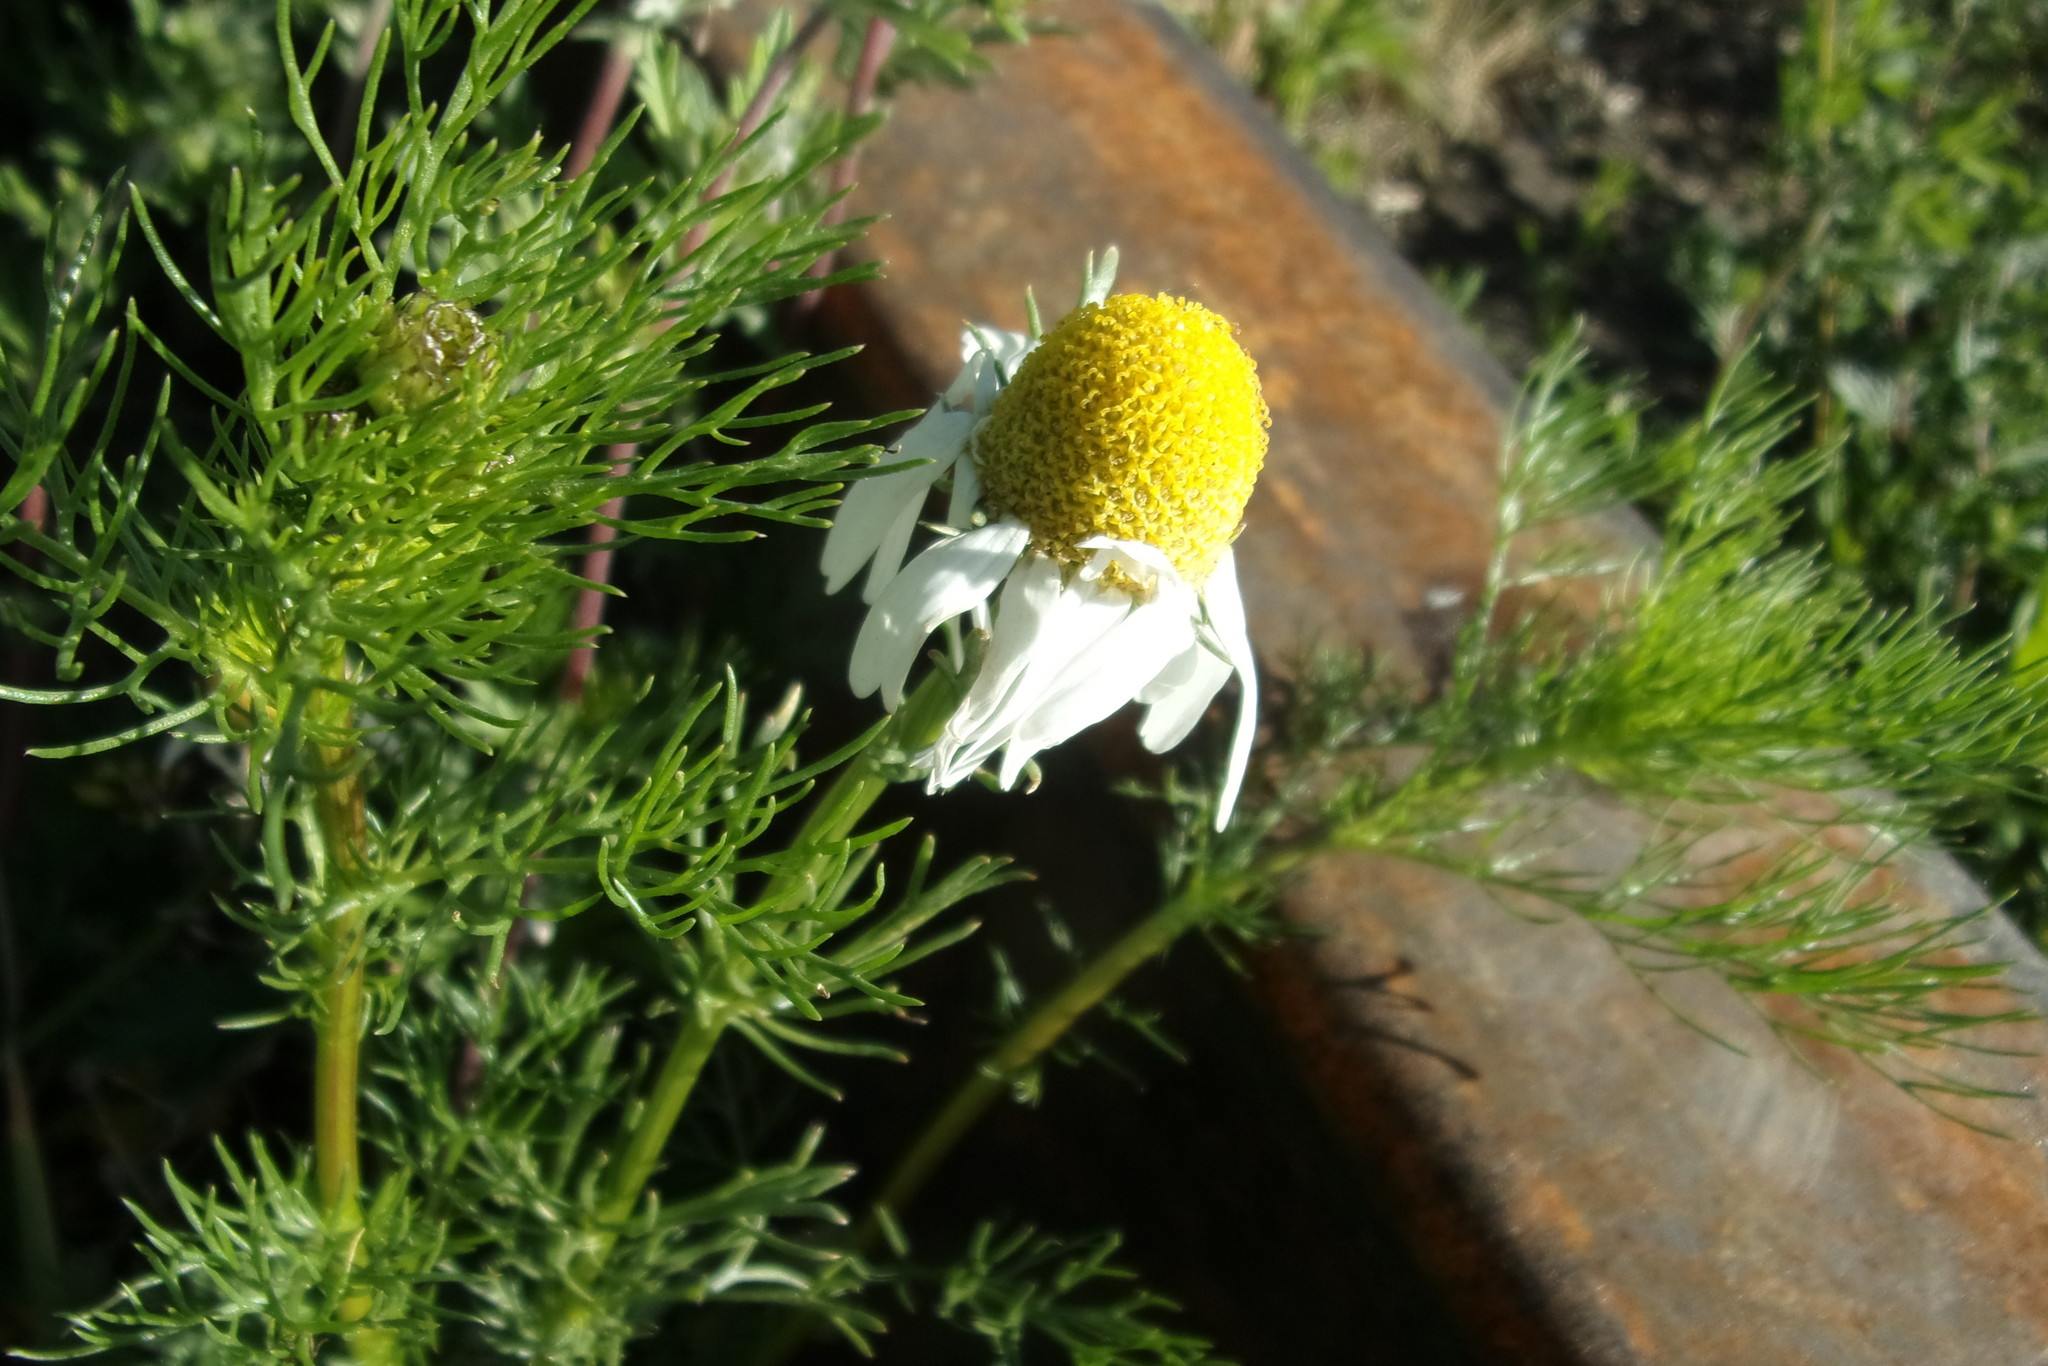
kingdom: Plantae
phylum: Tracheophyta
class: Magnoliopsida
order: Asterales
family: Asteraceae
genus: Tripleurospermum
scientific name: Tripleurospermum inodorum
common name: Scentless mayweed
